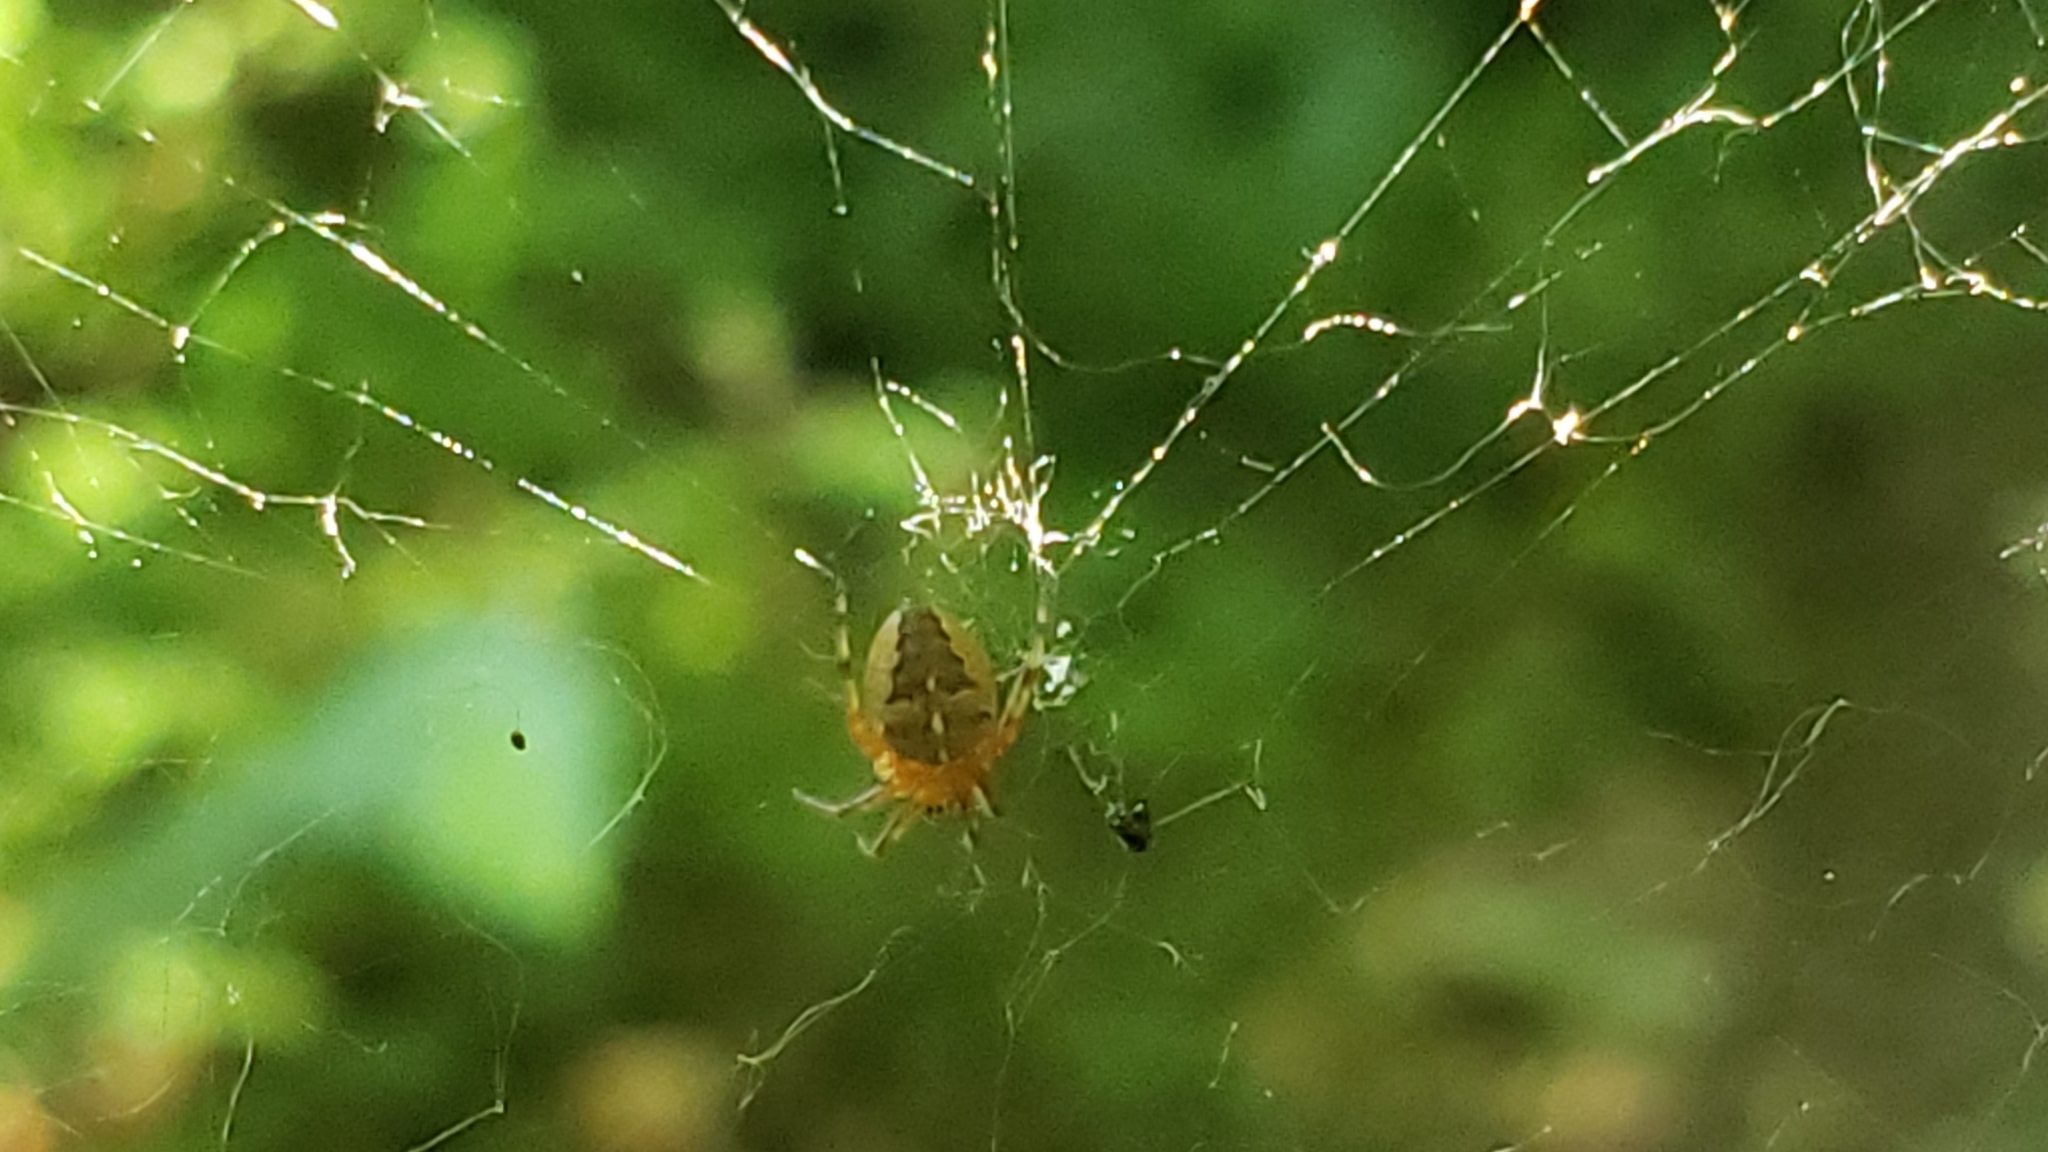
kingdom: Animalia
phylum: Arthropoda
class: Arachnida
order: Araneae
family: Araneidae
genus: Araneus
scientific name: Araneus diadematus
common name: Cross orbweaver
